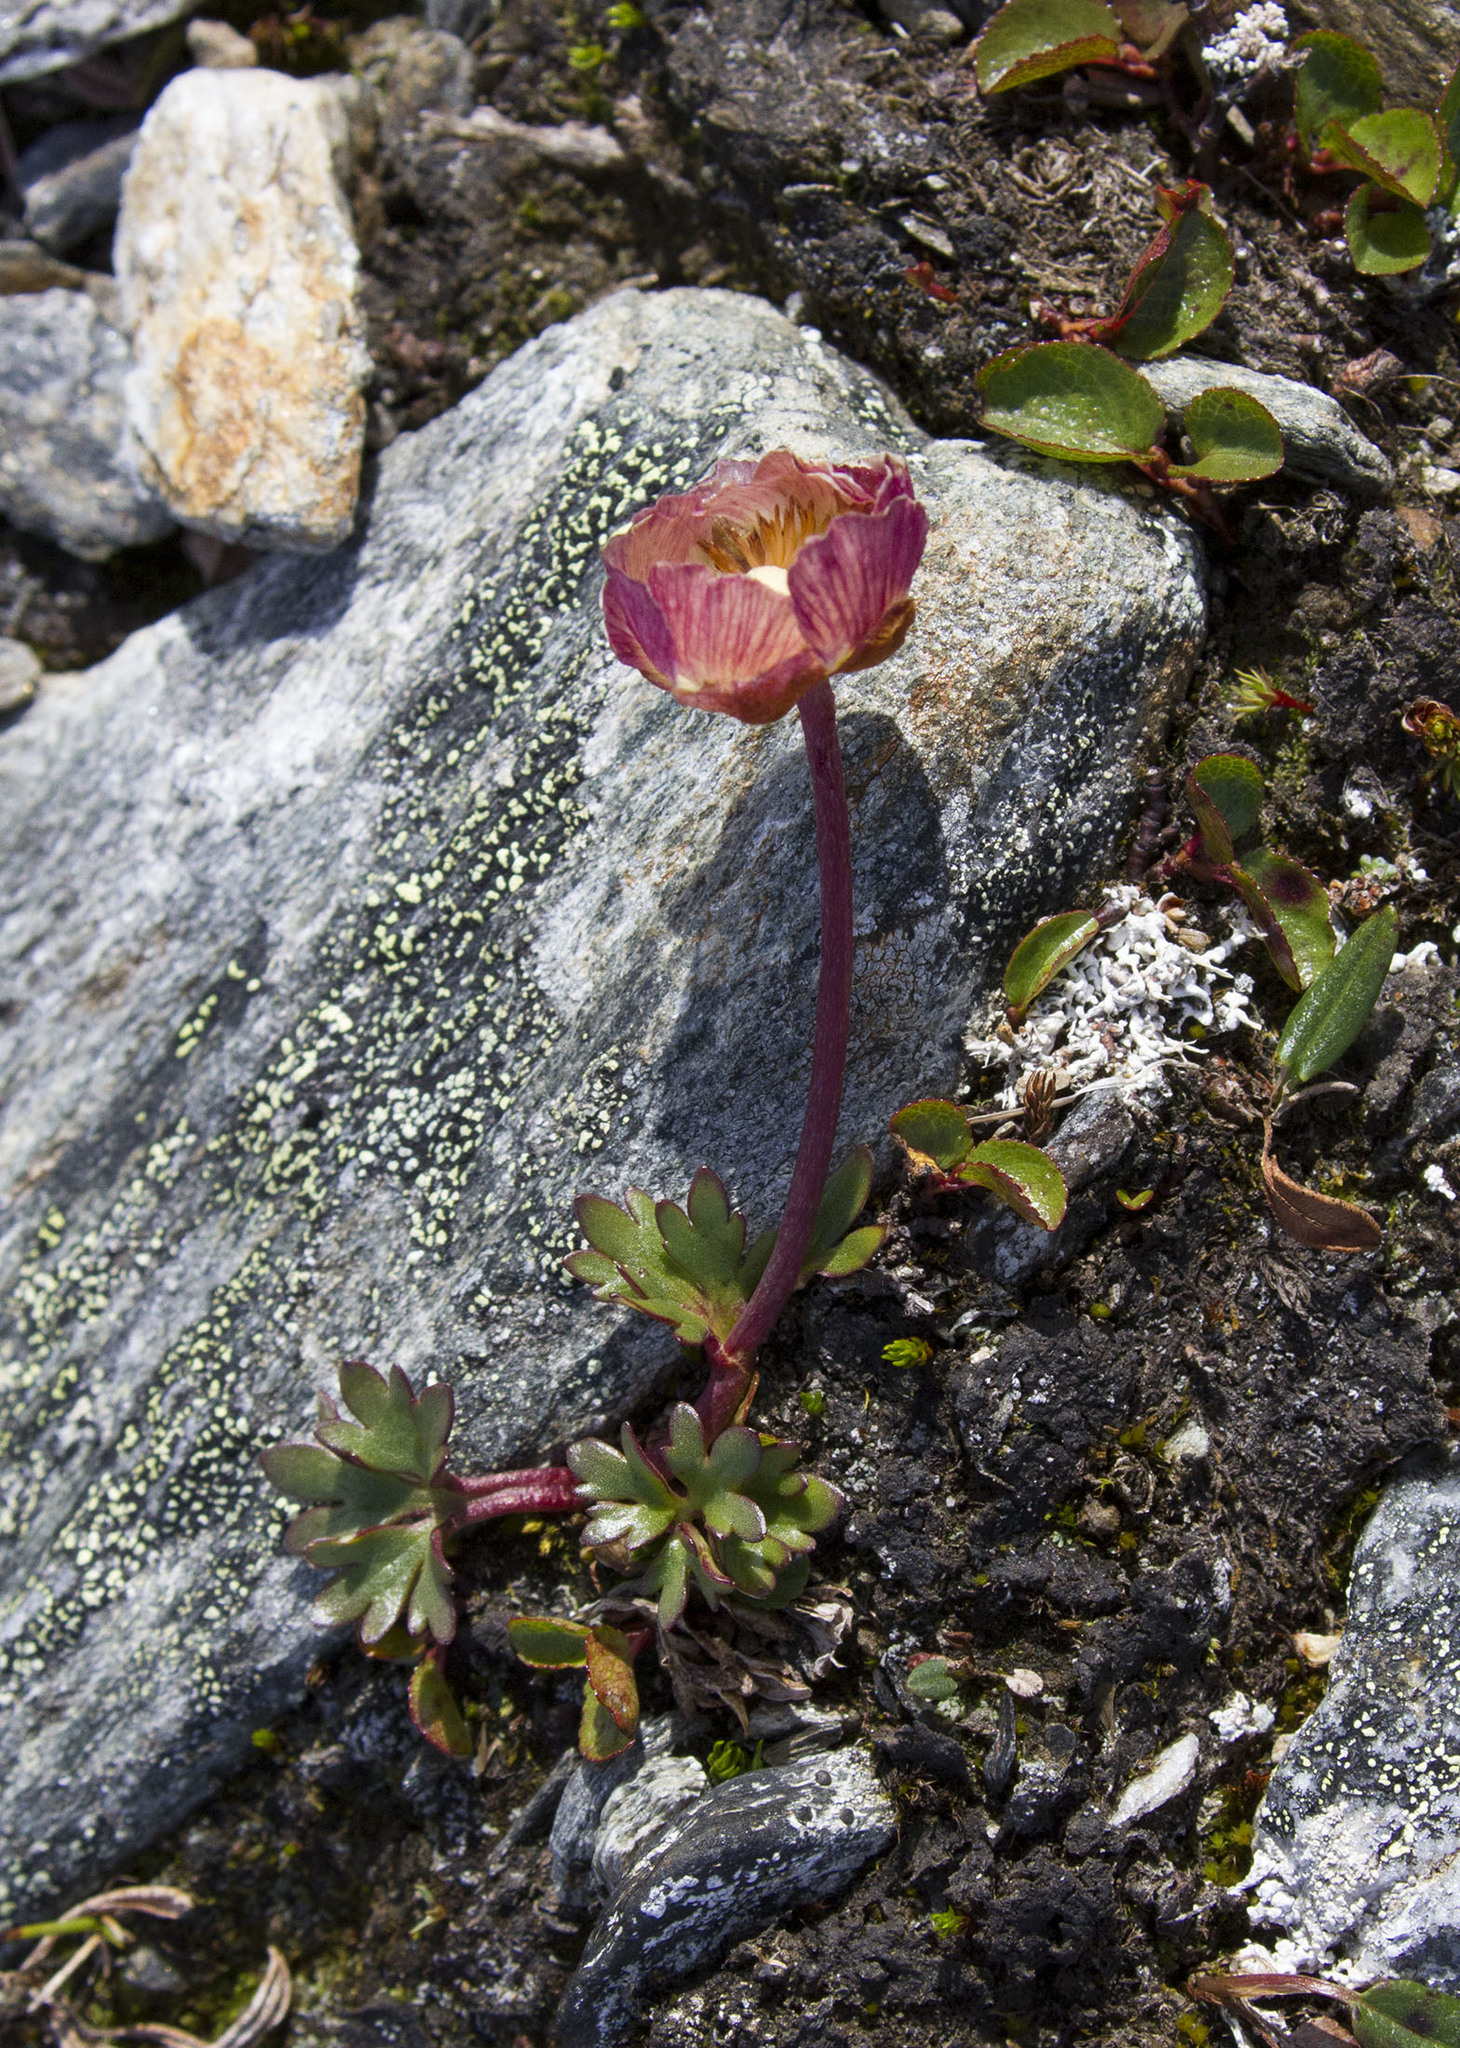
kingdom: Plantae
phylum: Tracheophyta
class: Magnoliopsida
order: Ranunculales
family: Ranunculaceae
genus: Ranunculus
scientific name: Ranunculus glacialis
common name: Glacier buttercup
